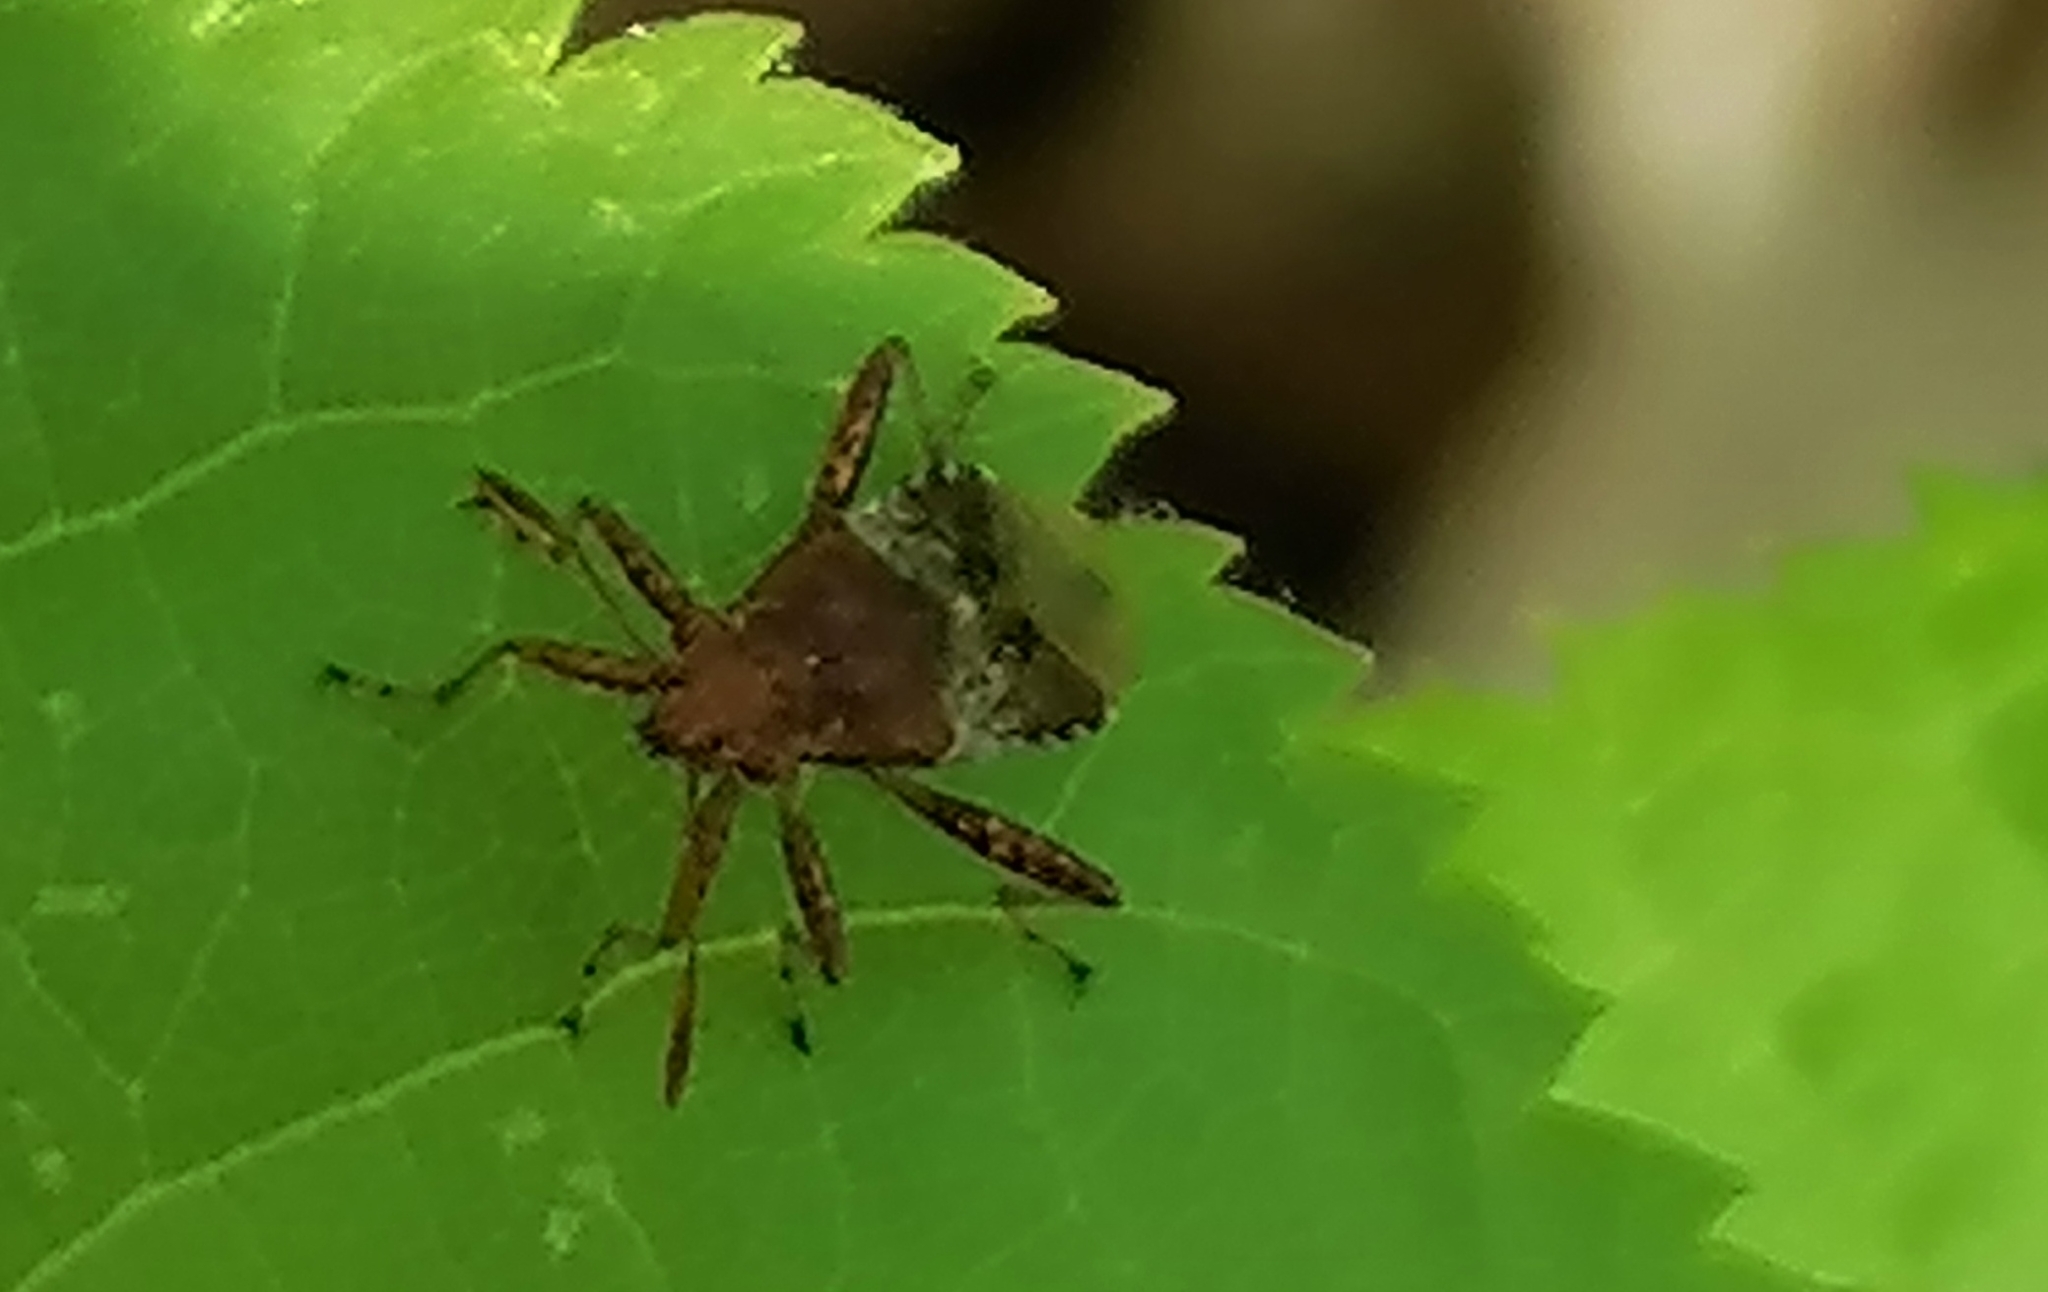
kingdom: Animalia
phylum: Arthropoda
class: Insecta
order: Hemiptera
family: Rhopalidae
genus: Rhopalus
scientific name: Rhopalus subrufus
